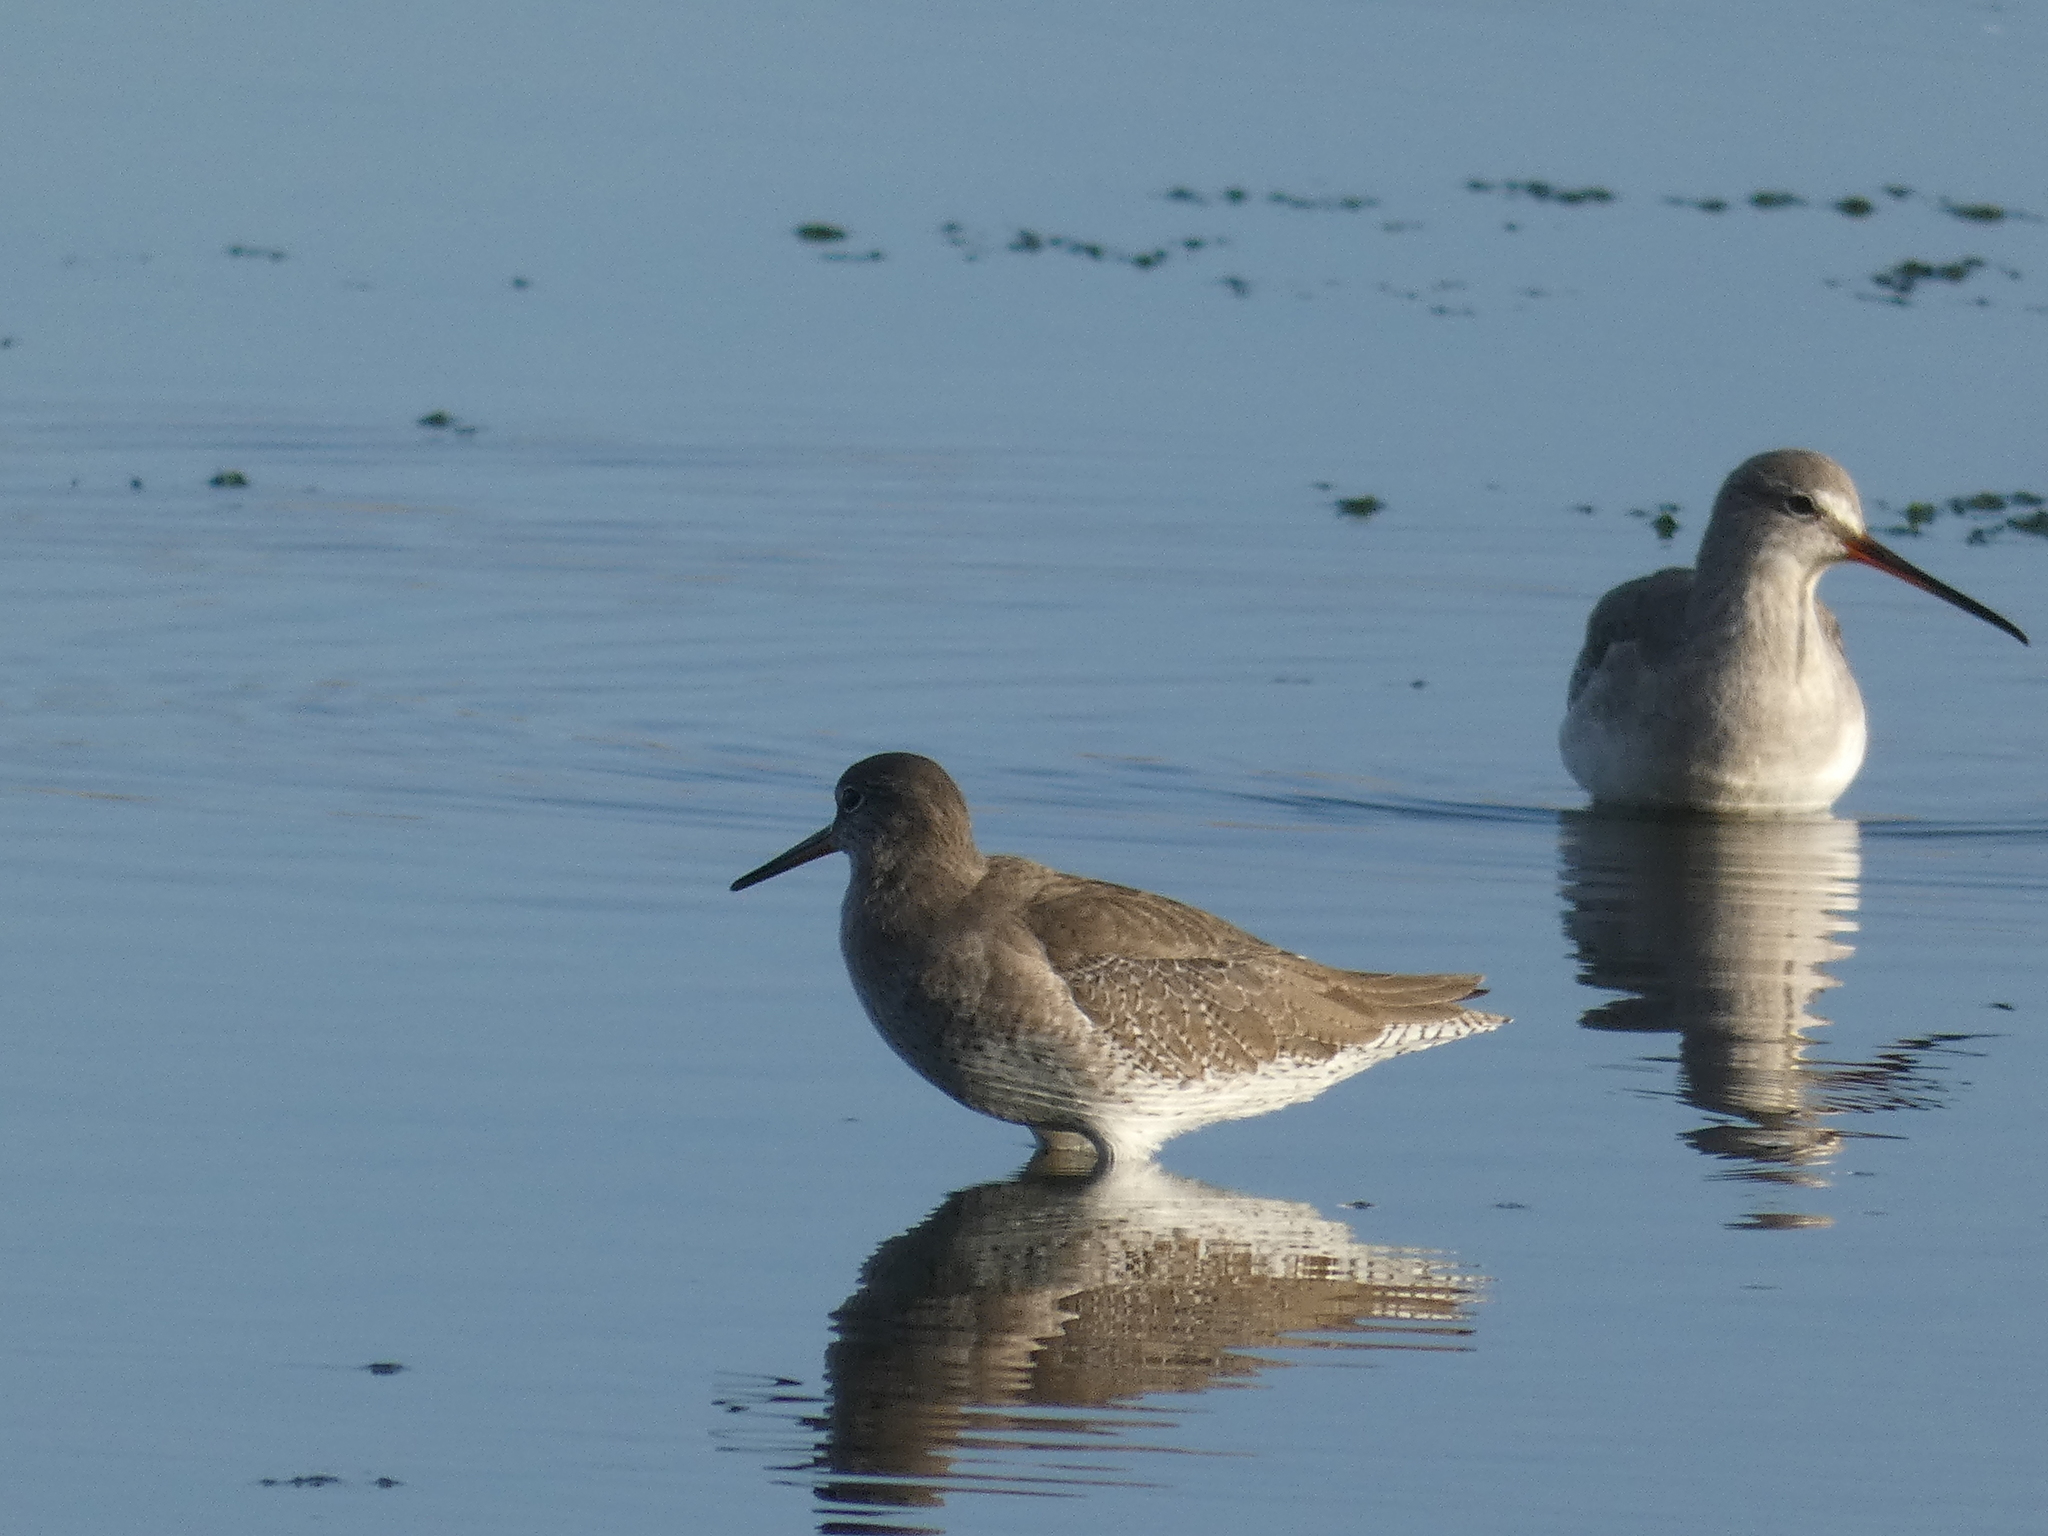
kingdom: Animalia
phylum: Chordata
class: Aves
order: Charadriiformes
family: Scolopacidae
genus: Tringa
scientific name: Tringa totanus
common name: Common redshank
